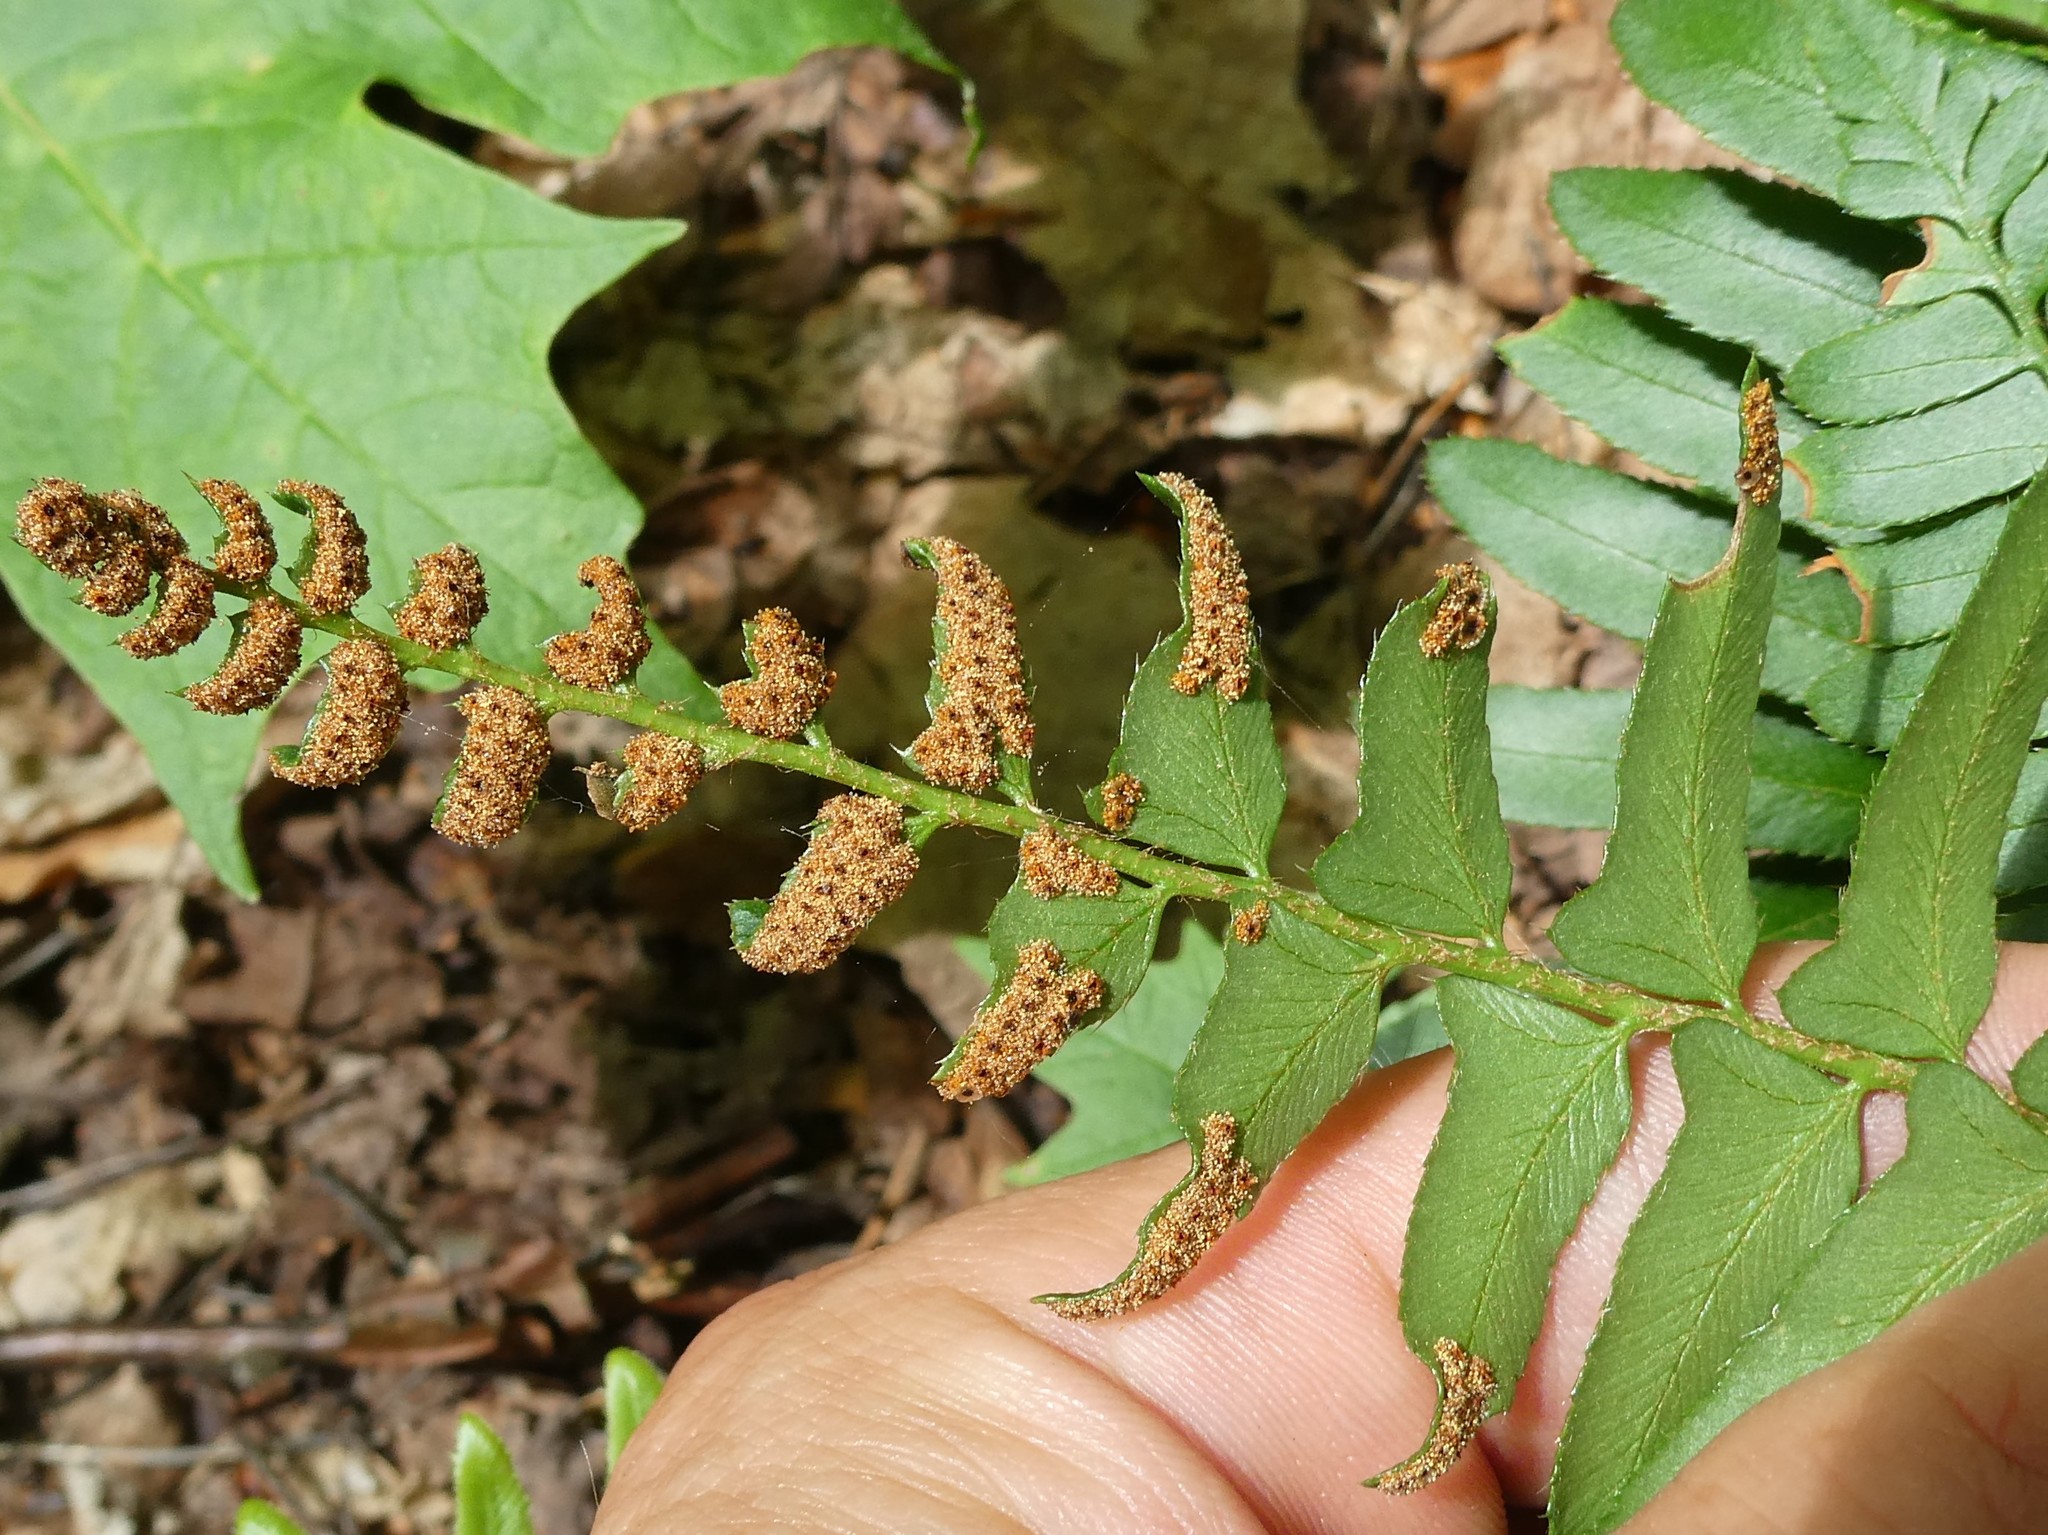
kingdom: Plantae
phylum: Tracheophyta
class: Polypodiopsida
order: Polypodiales
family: Dryopteridaceae
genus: Polystichum
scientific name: Polystichum acrostichoides
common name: Christmas fern
